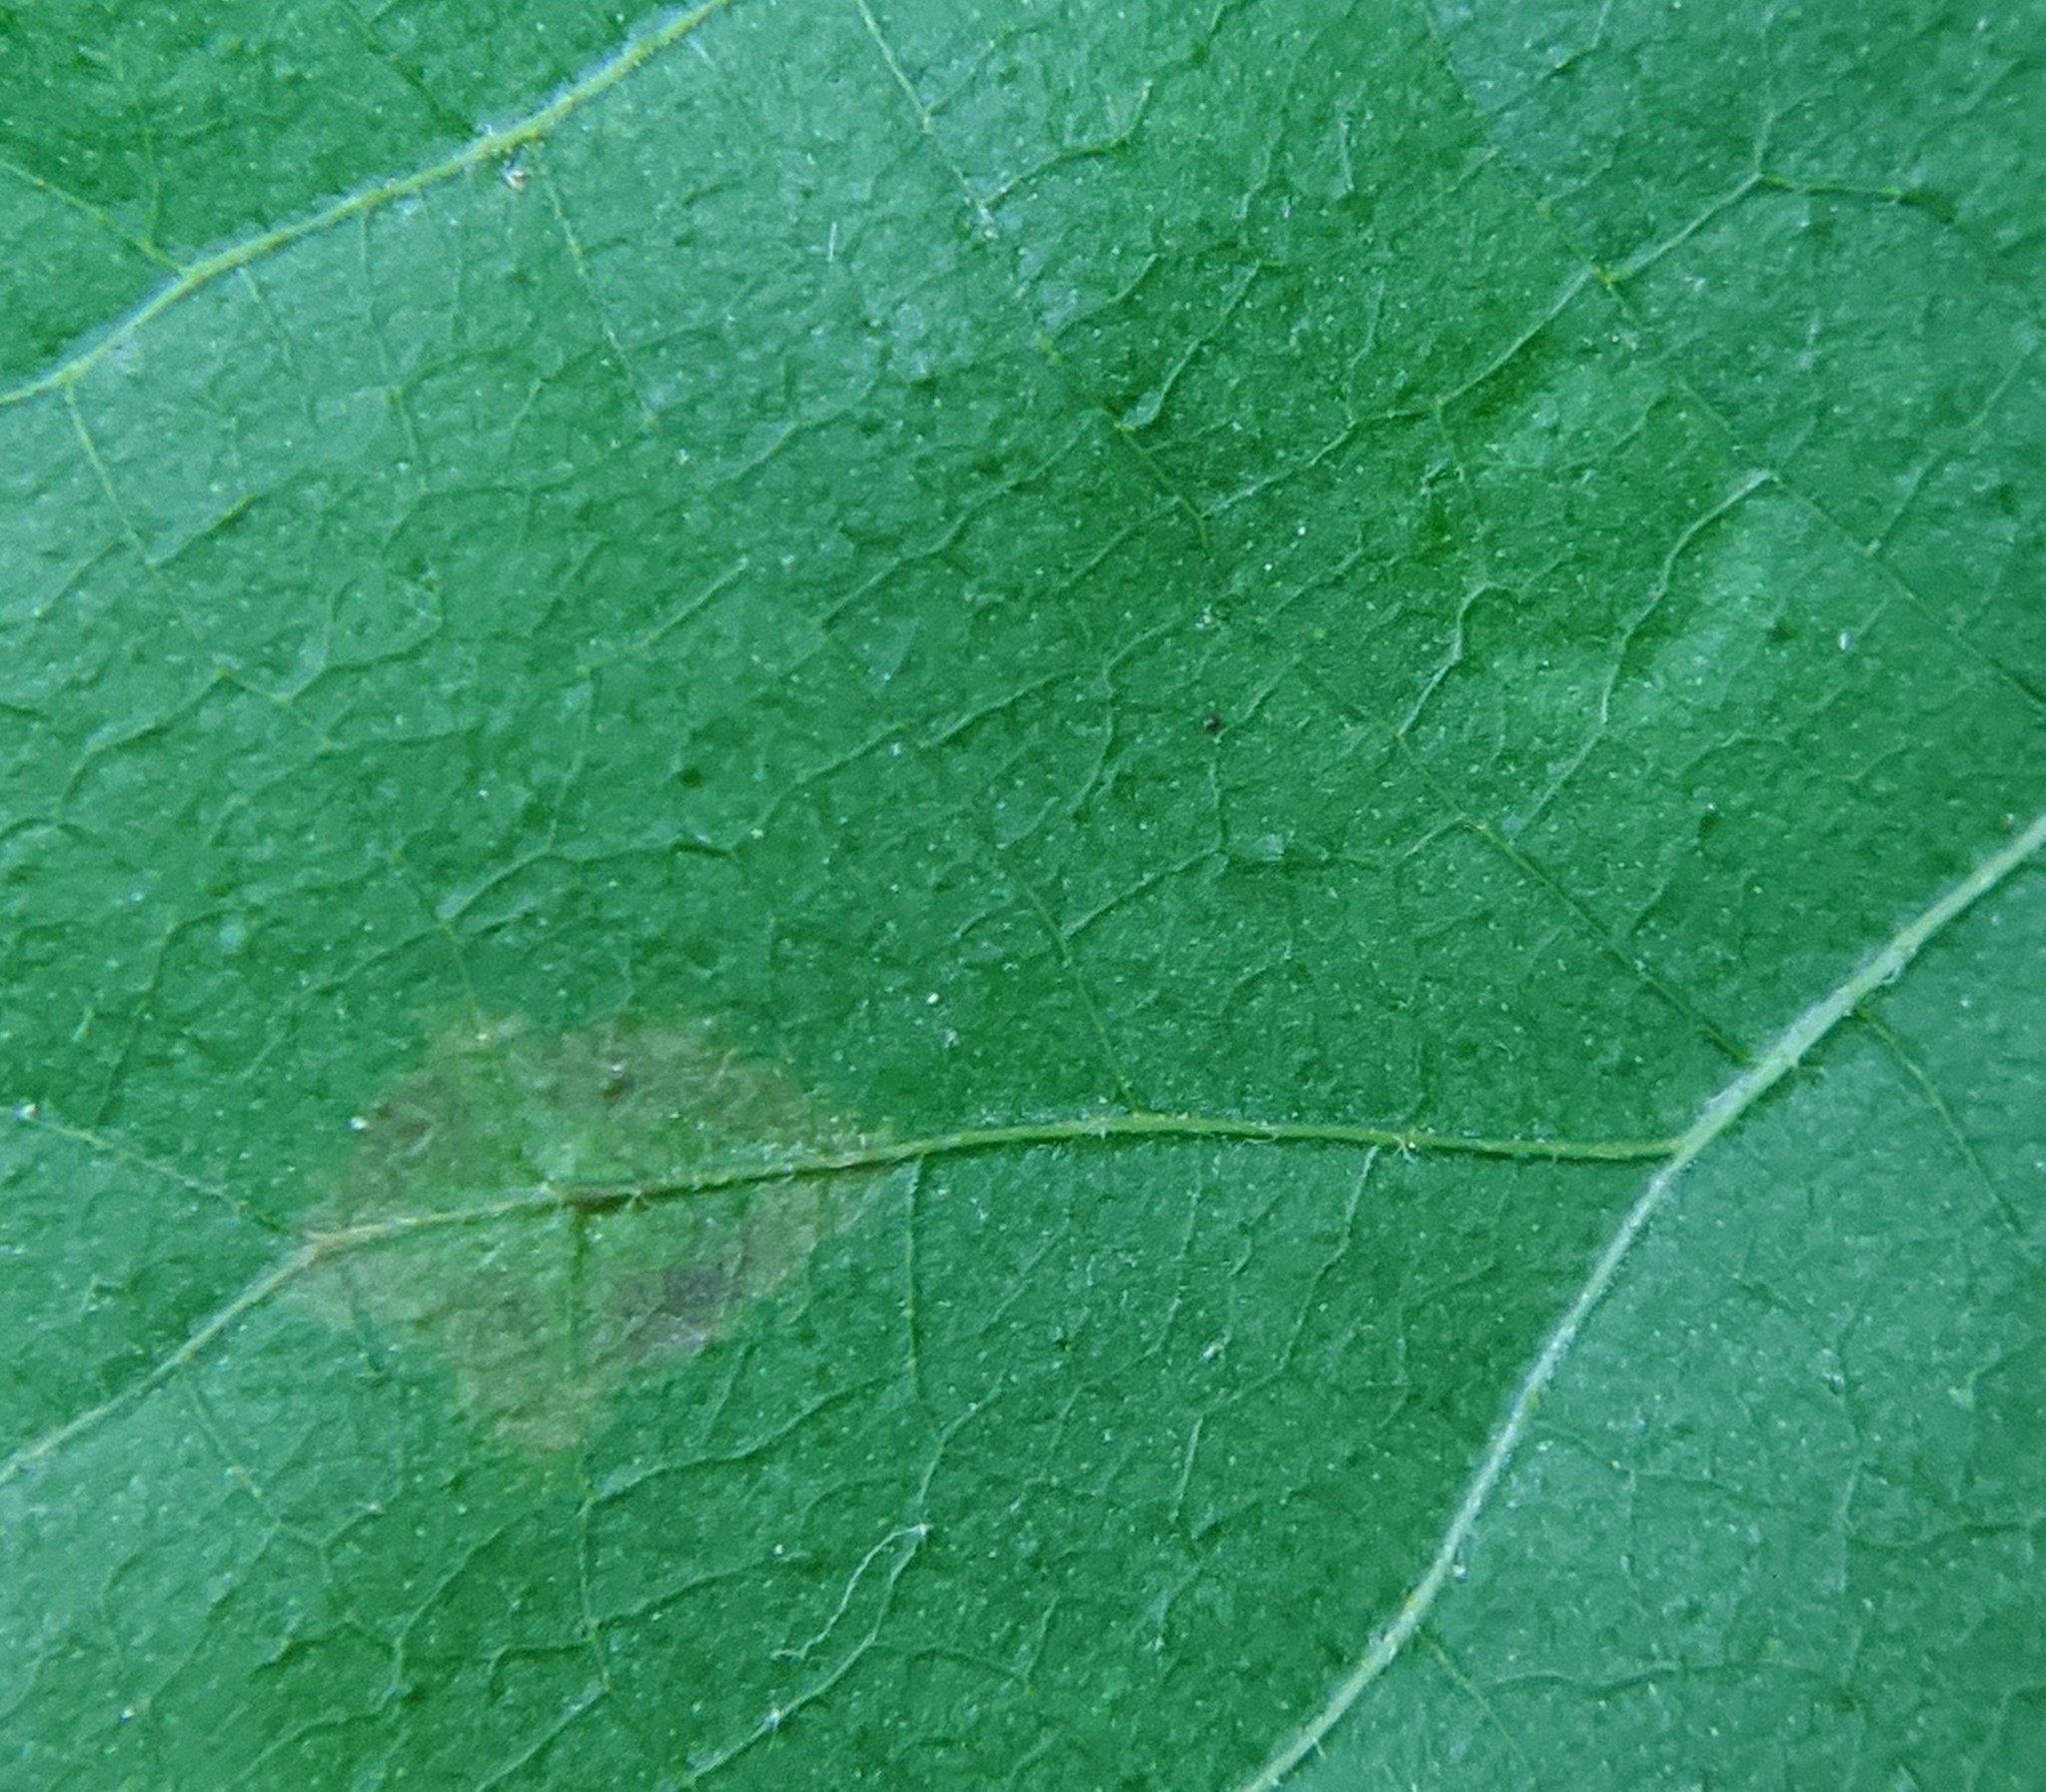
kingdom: Animalia
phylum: Arthropoda
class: Insecta
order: Diptera
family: Cecidomyiidae
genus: Gliaspilota
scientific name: Gliaspilota glutinosa
